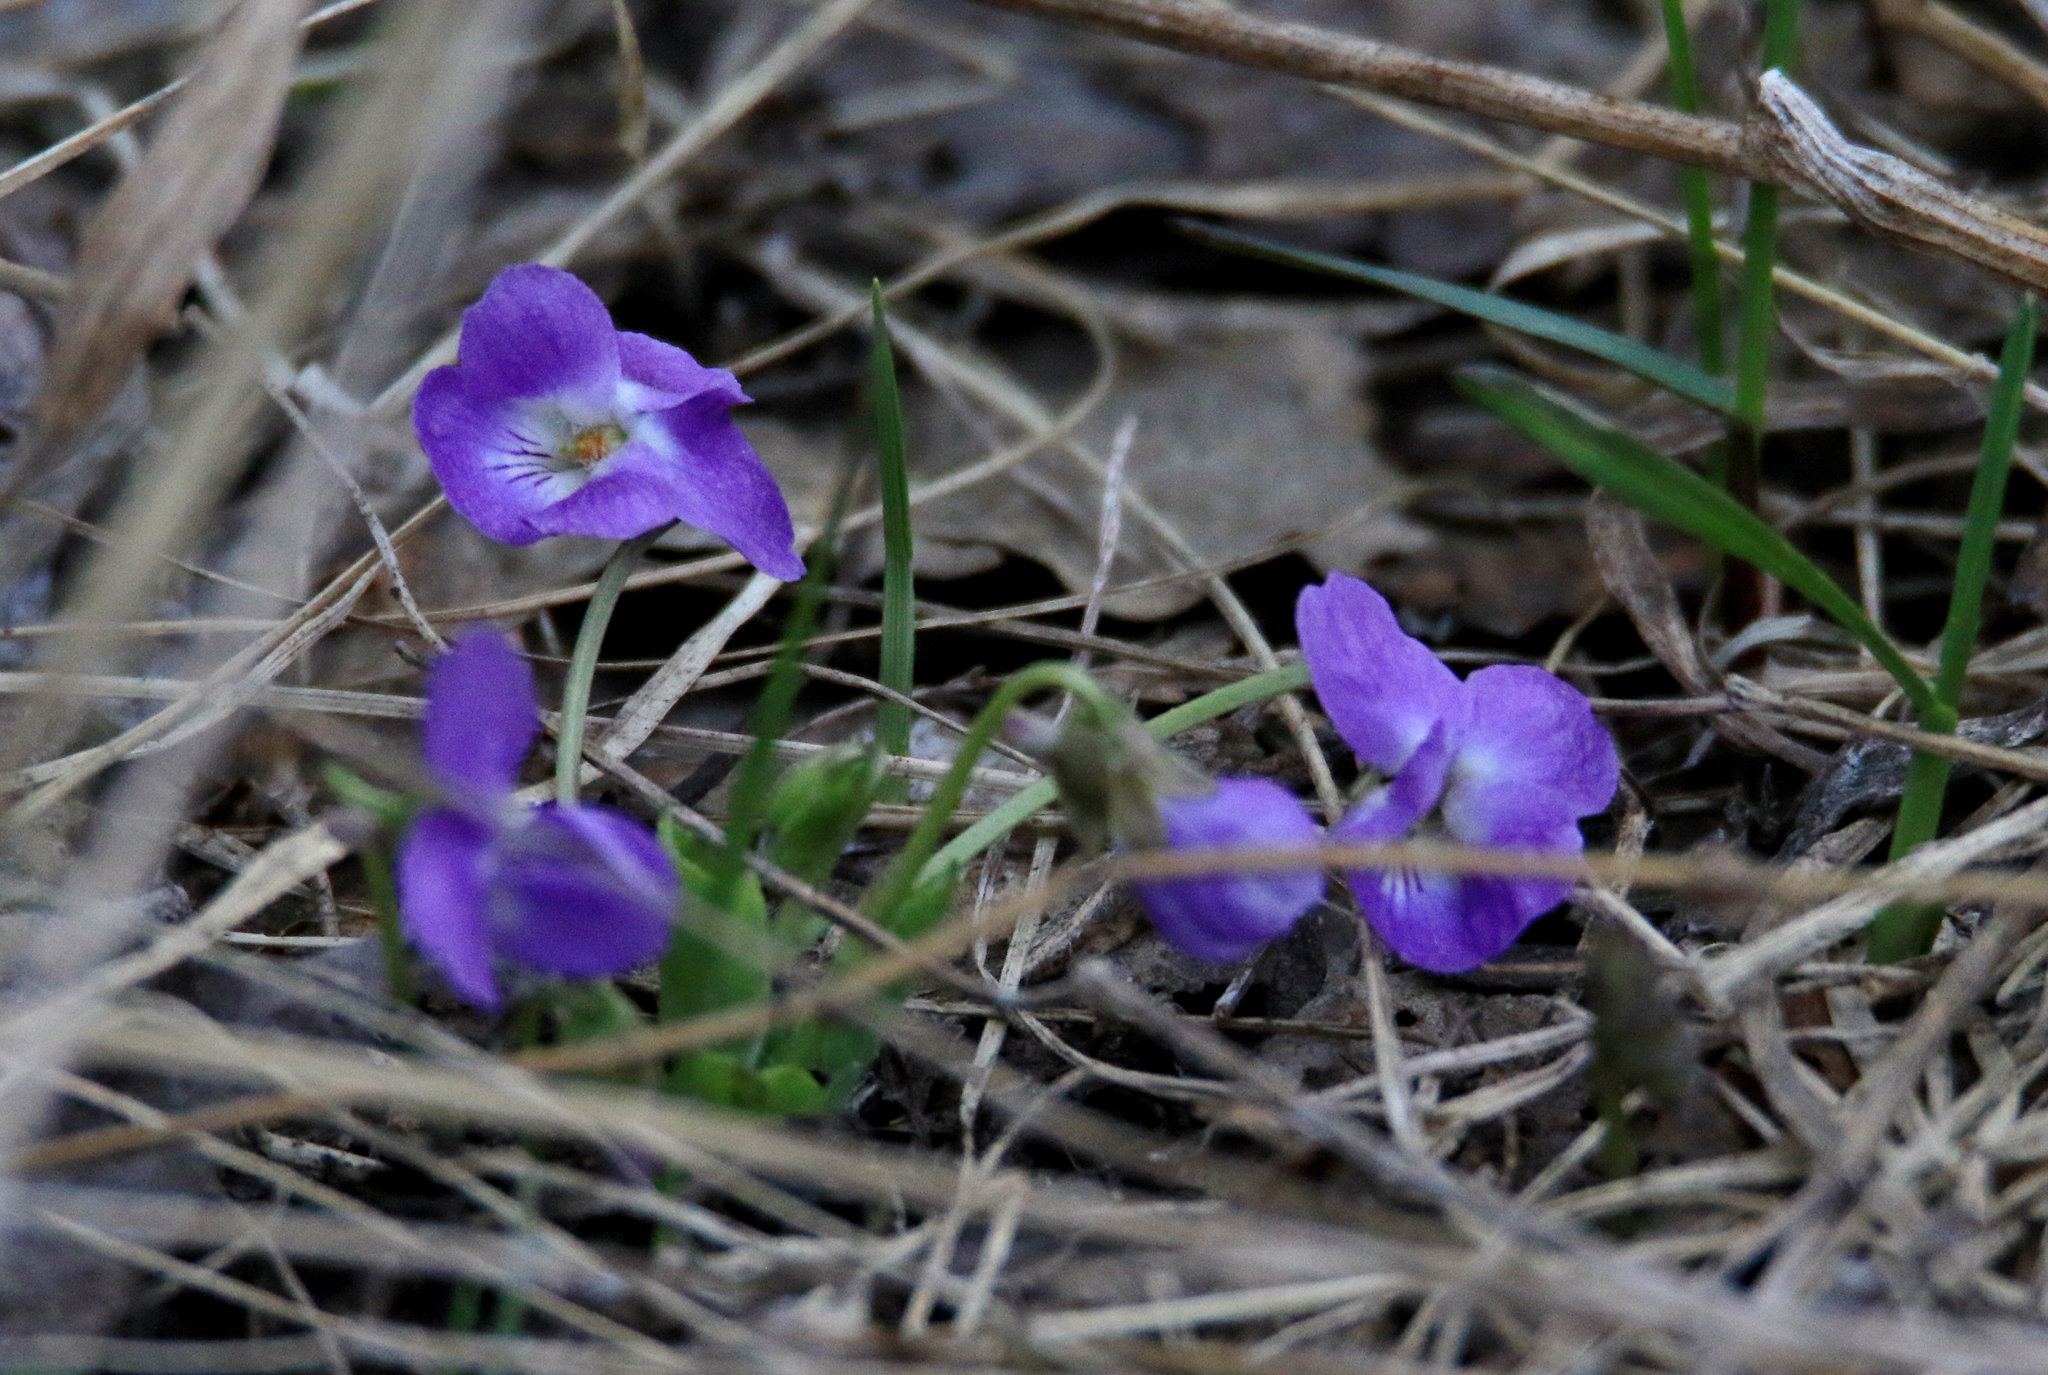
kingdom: Plantae
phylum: Tracheophyta
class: Magnoliopsida
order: Malpighiales
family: Violaceae
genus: Viola
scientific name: Viola hirta
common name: Hairy violet
